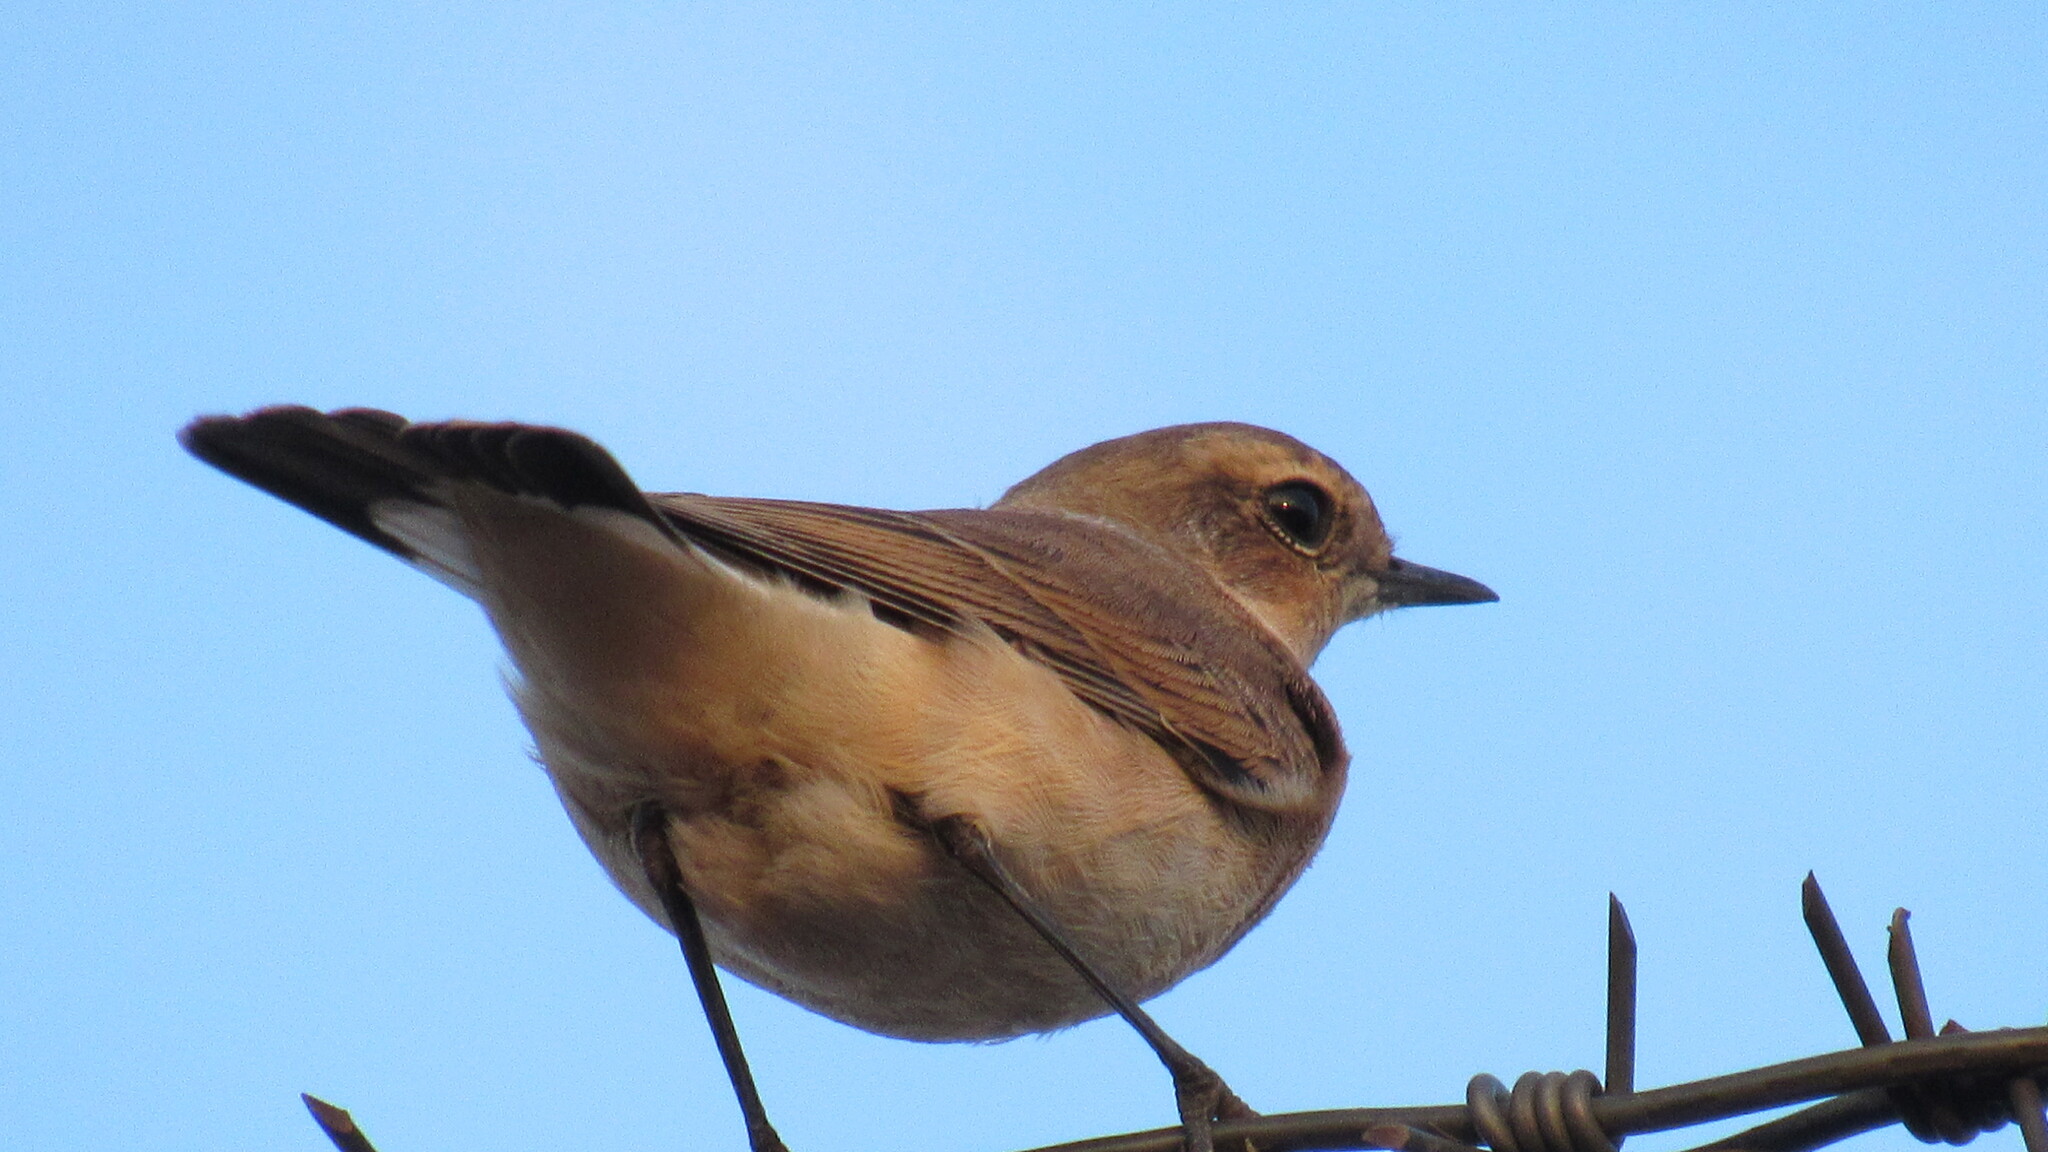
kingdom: Animalia
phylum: Chordata
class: Aves
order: Passeriformes
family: Muscicapidae
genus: Oenanthe
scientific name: Oenanthe oenanthe
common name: Northern wheatear
